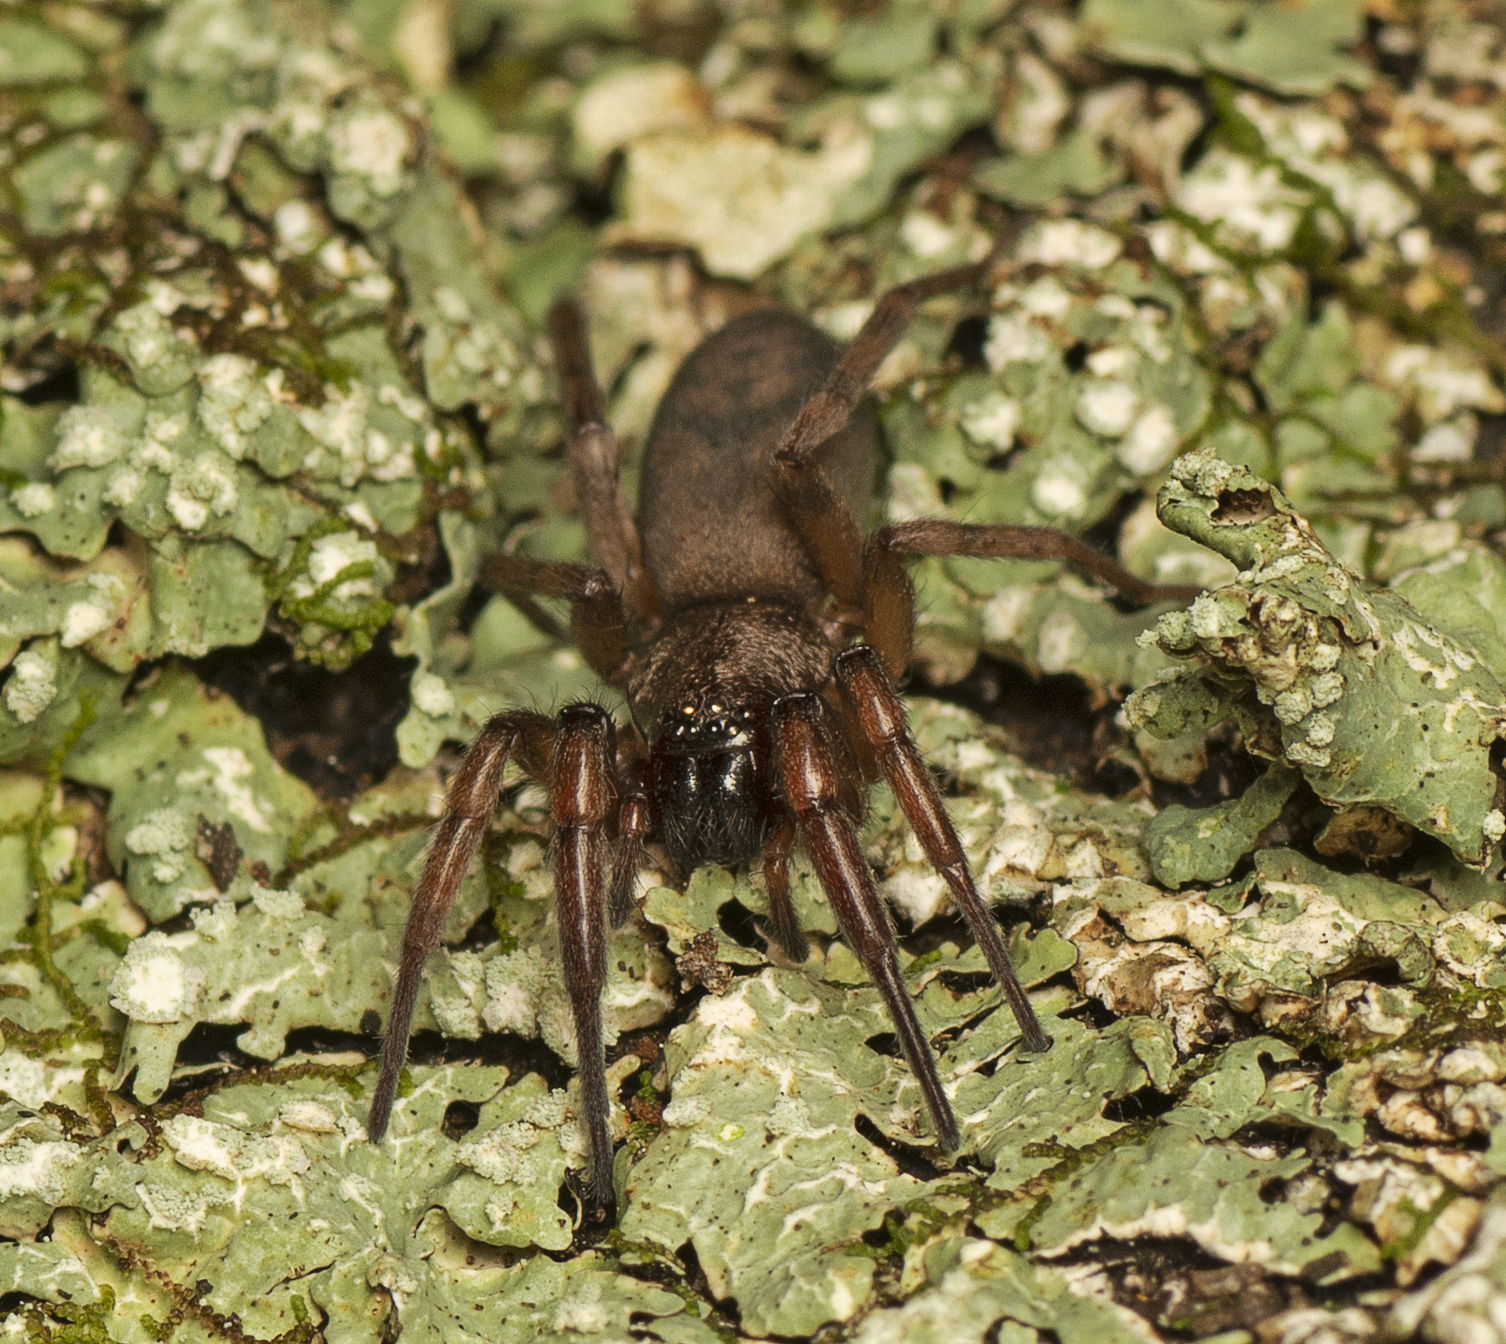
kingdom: Animalia
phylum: Arthropoda
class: Arachnida
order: Araneae
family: Gnaphosidae
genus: Intruda
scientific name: Intruda signata
